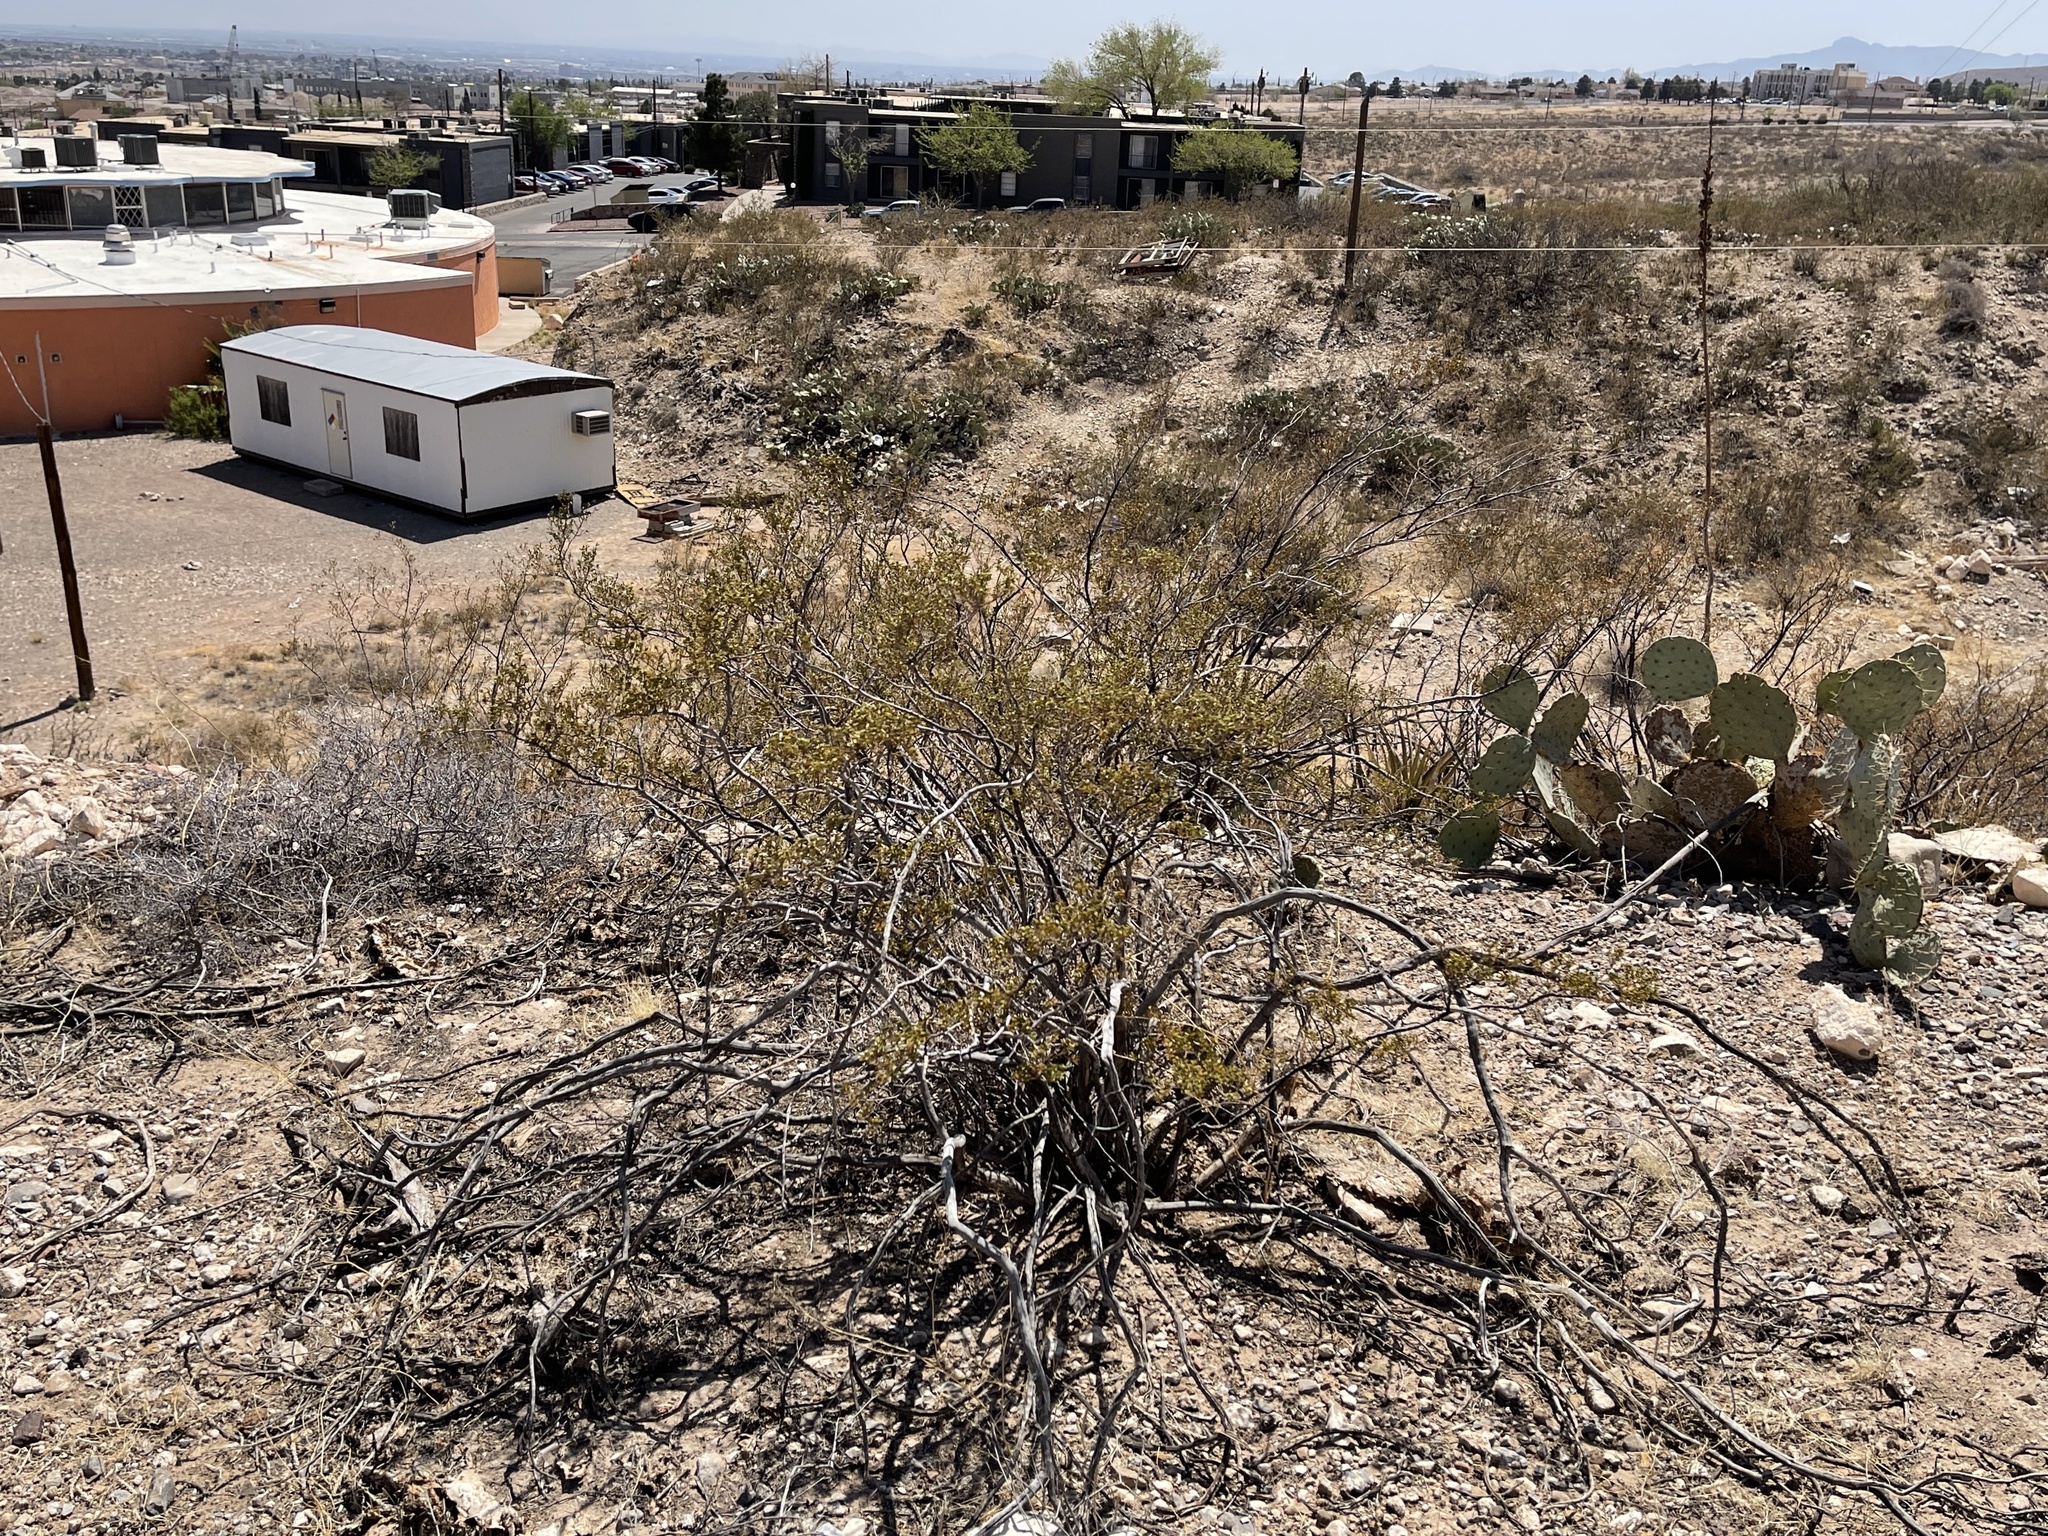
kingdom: Plantae
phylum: Tracheophyta
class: Magnoliopsida
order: Zygophyllales
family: Zygophyllaceae
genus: Larrea
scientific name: Larrea tridentata
